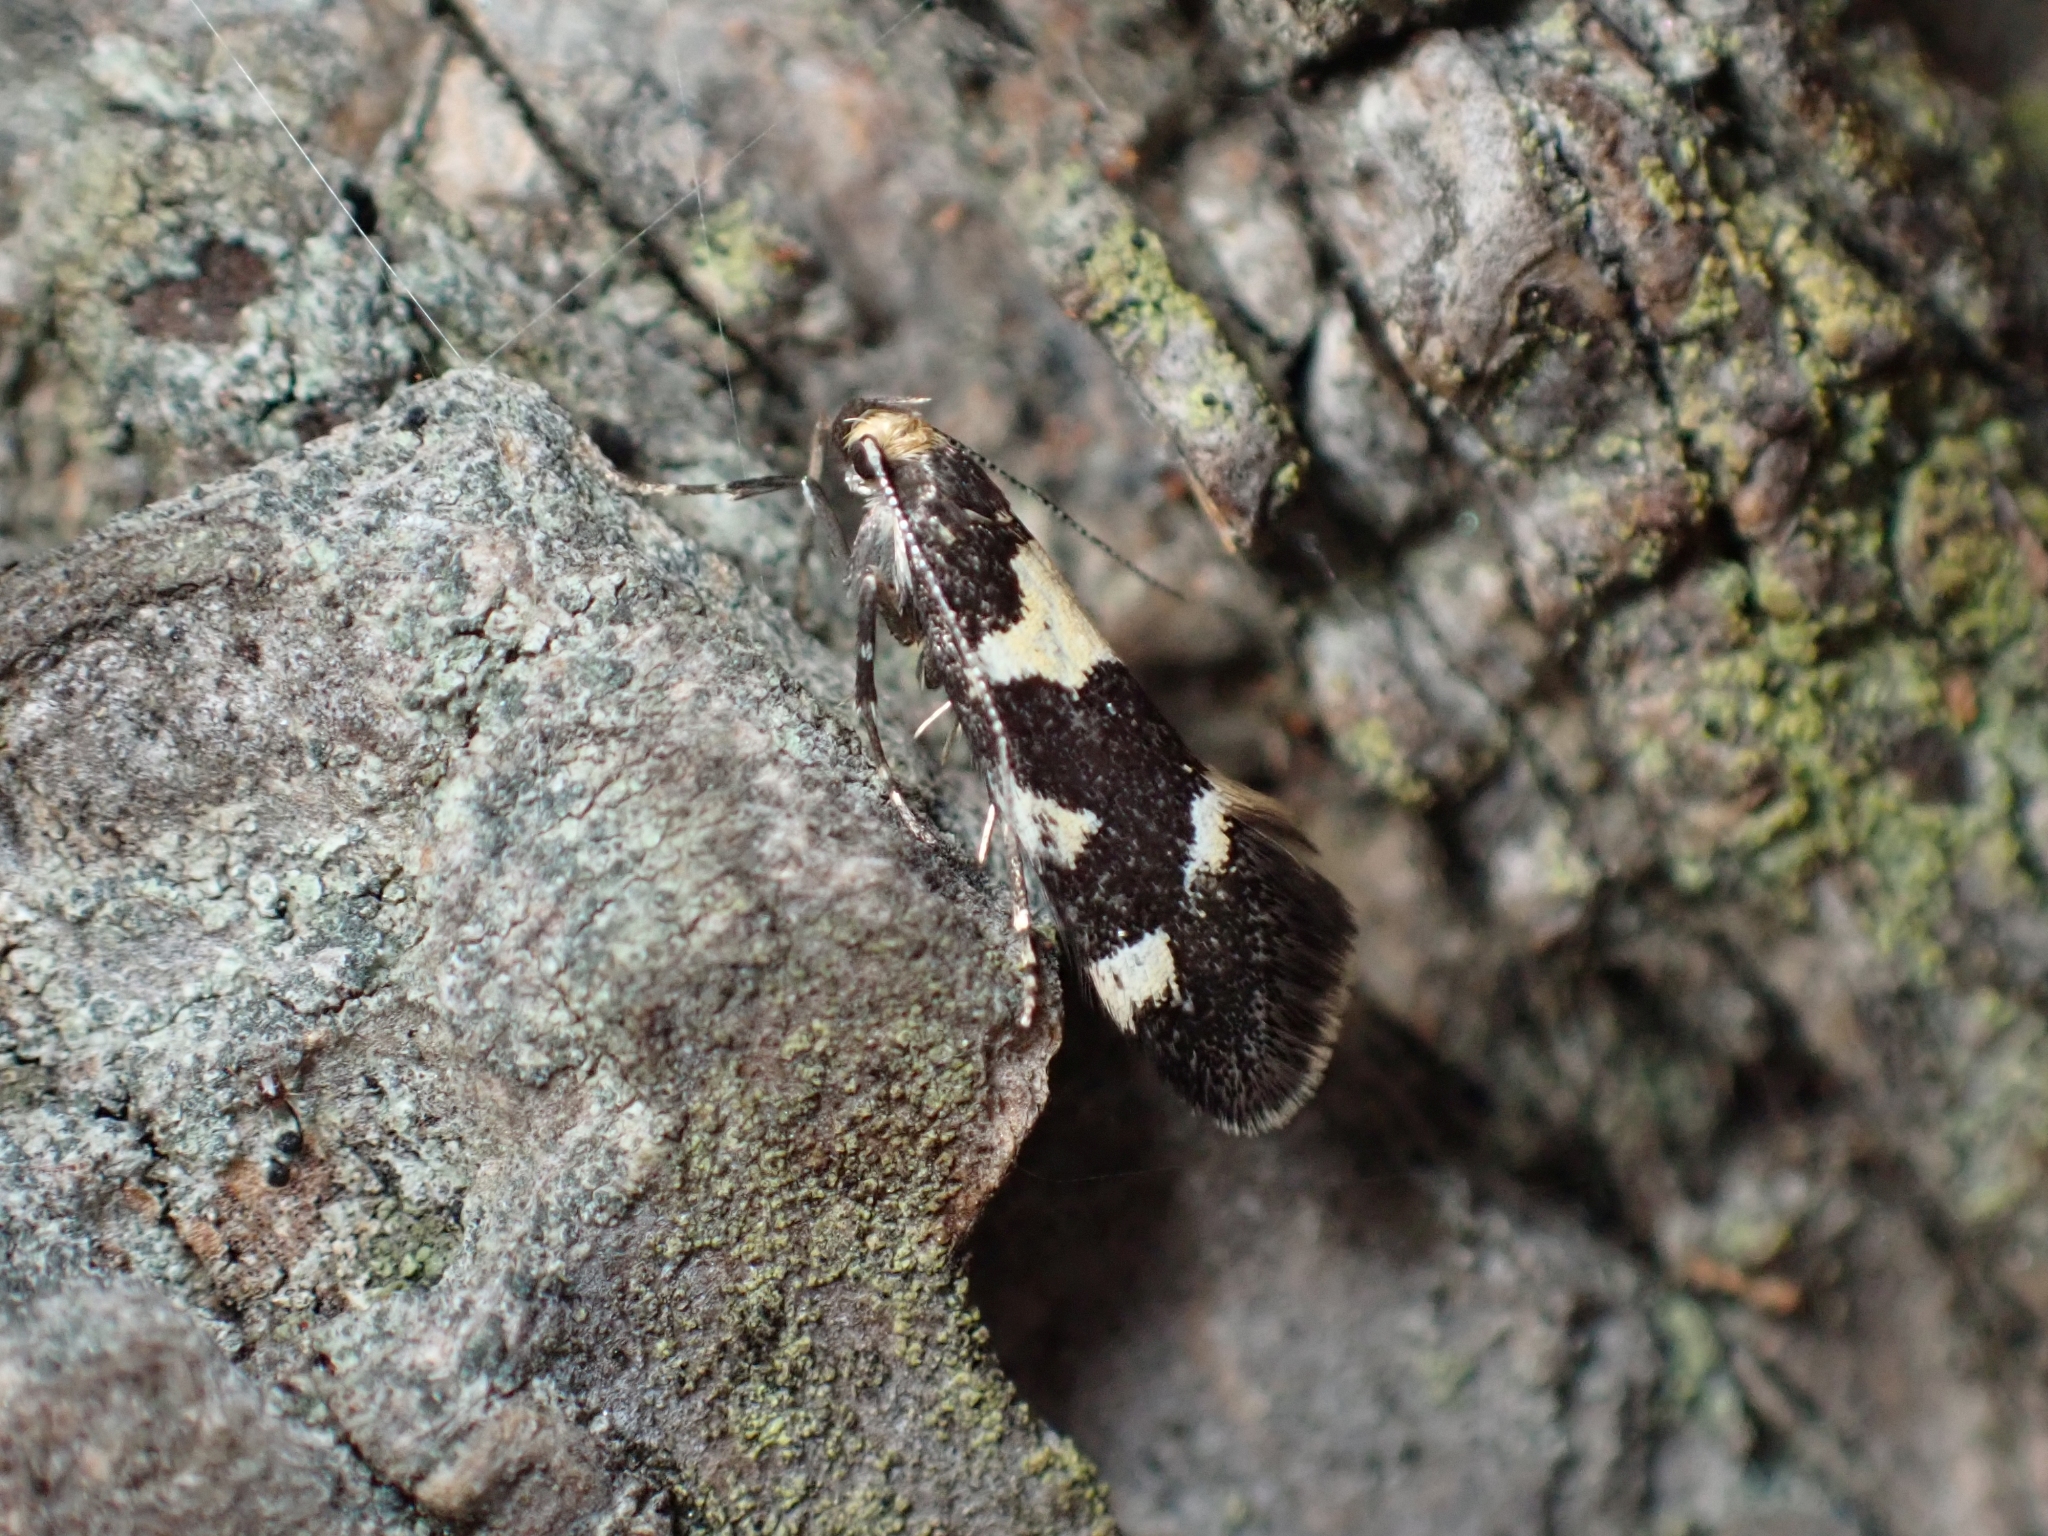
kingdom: Animalia
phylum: Arthropoda
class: Insecta
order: Lepidoptera
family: Oecophoridae
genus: Brymblia
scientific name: Brymblia quadrimaculella
